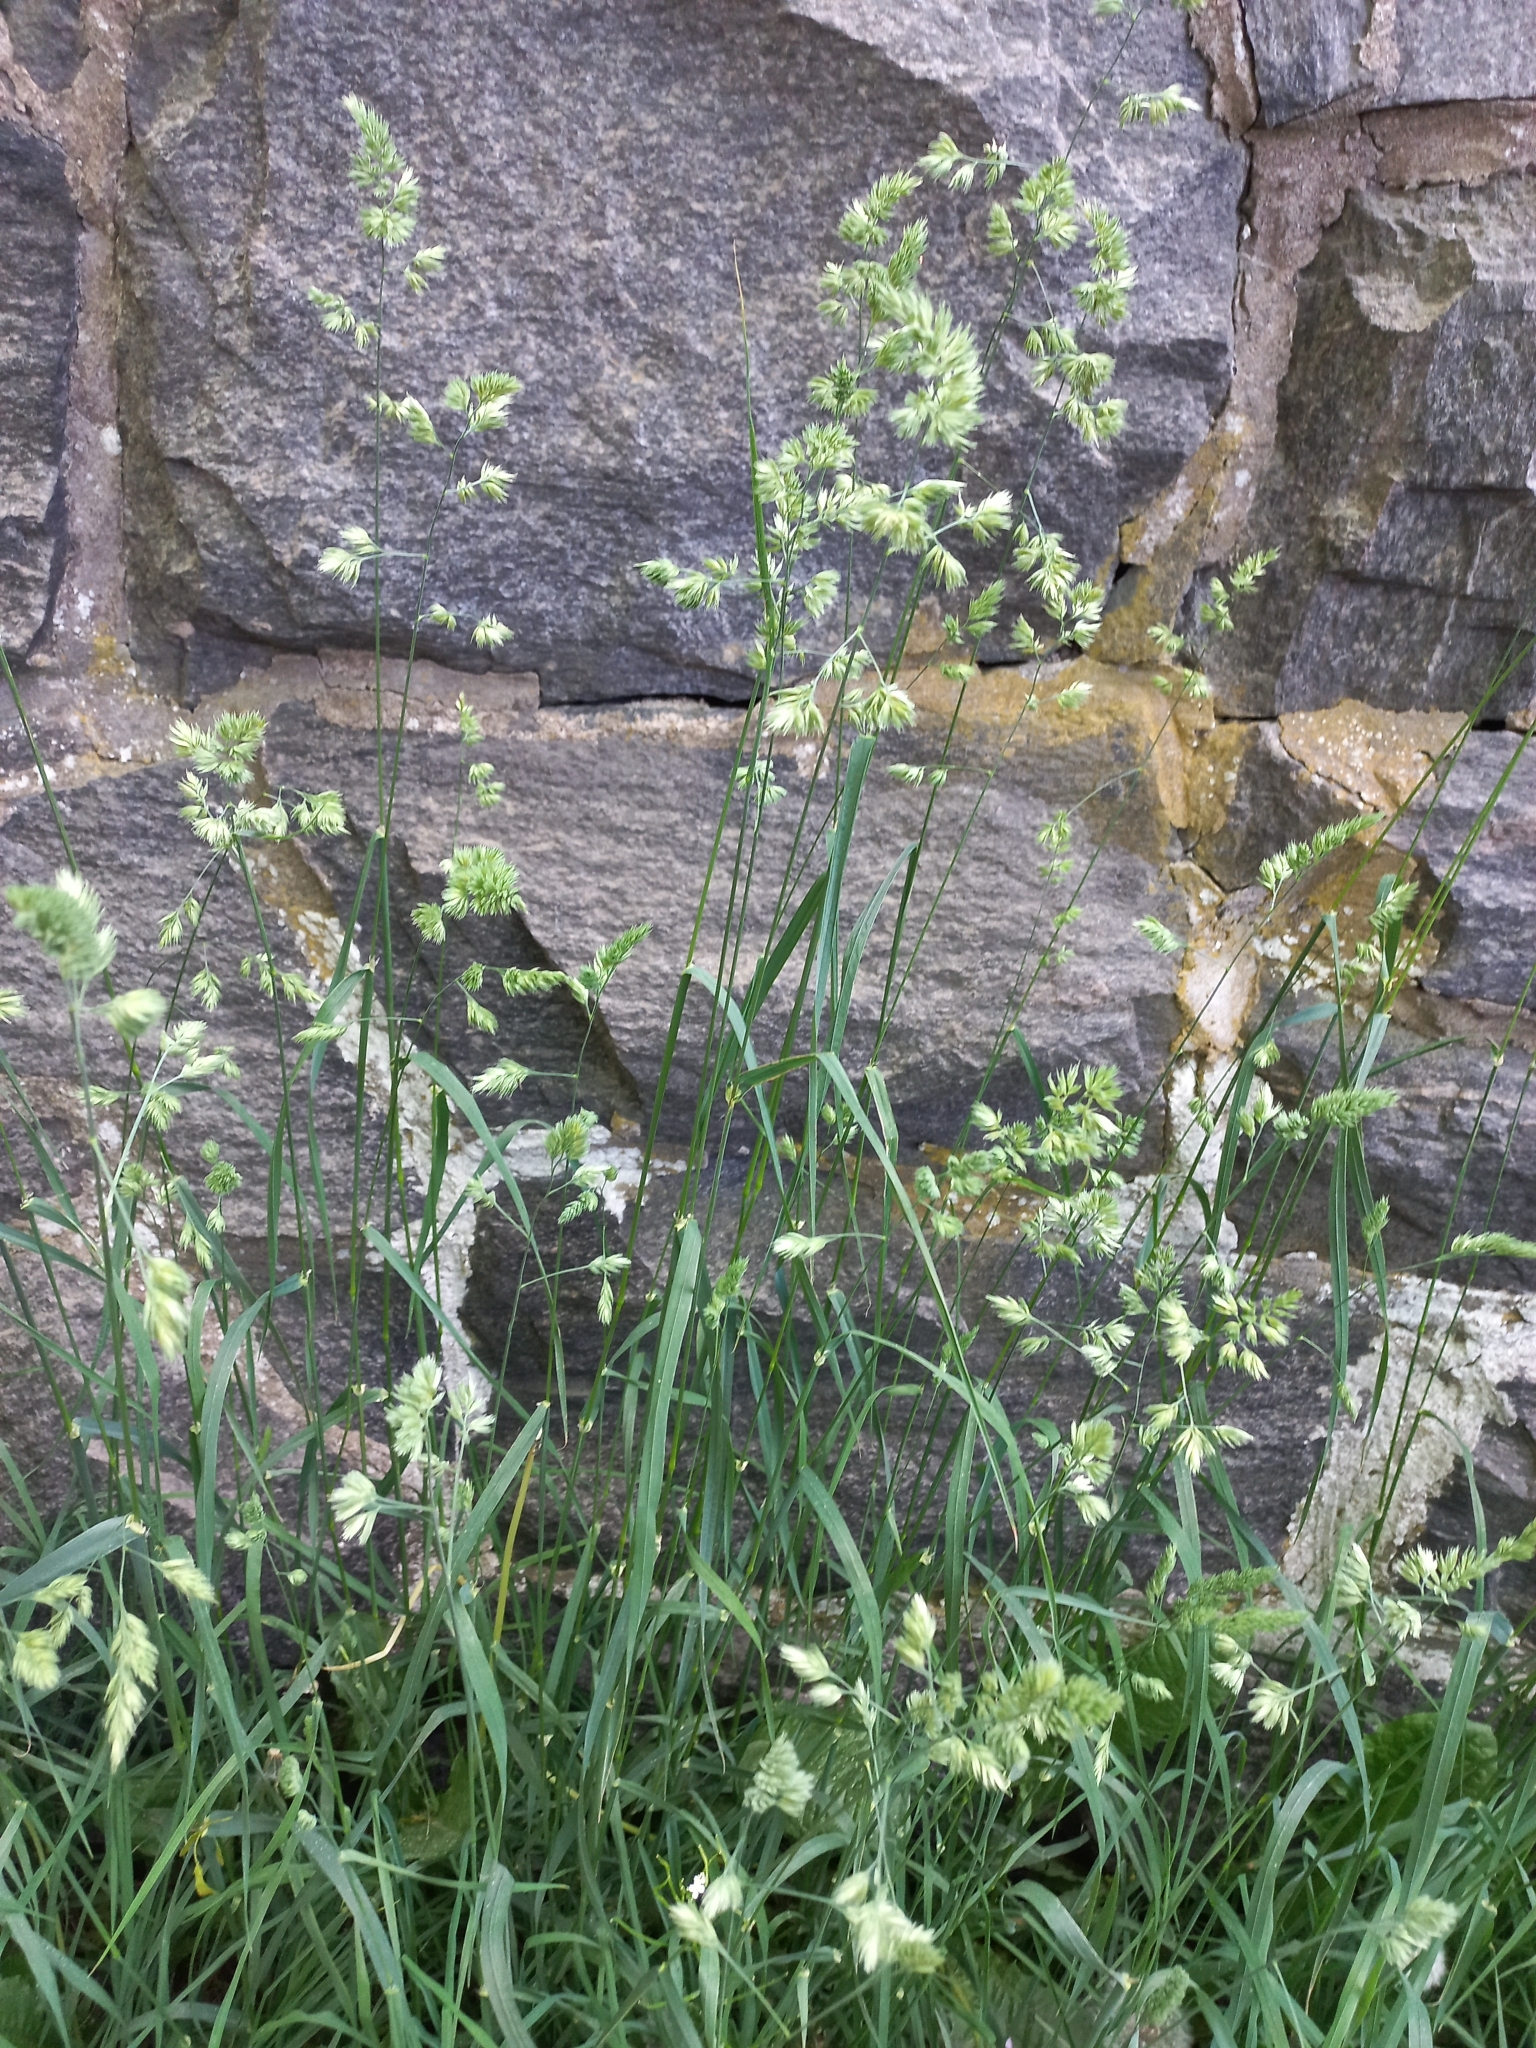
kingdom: Plantae
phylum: Tracheophyta
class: Liliopsida
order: Poales
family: Poaceae
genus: Dactylis
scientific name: Dactylis glomerata
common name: Orchardgrass
